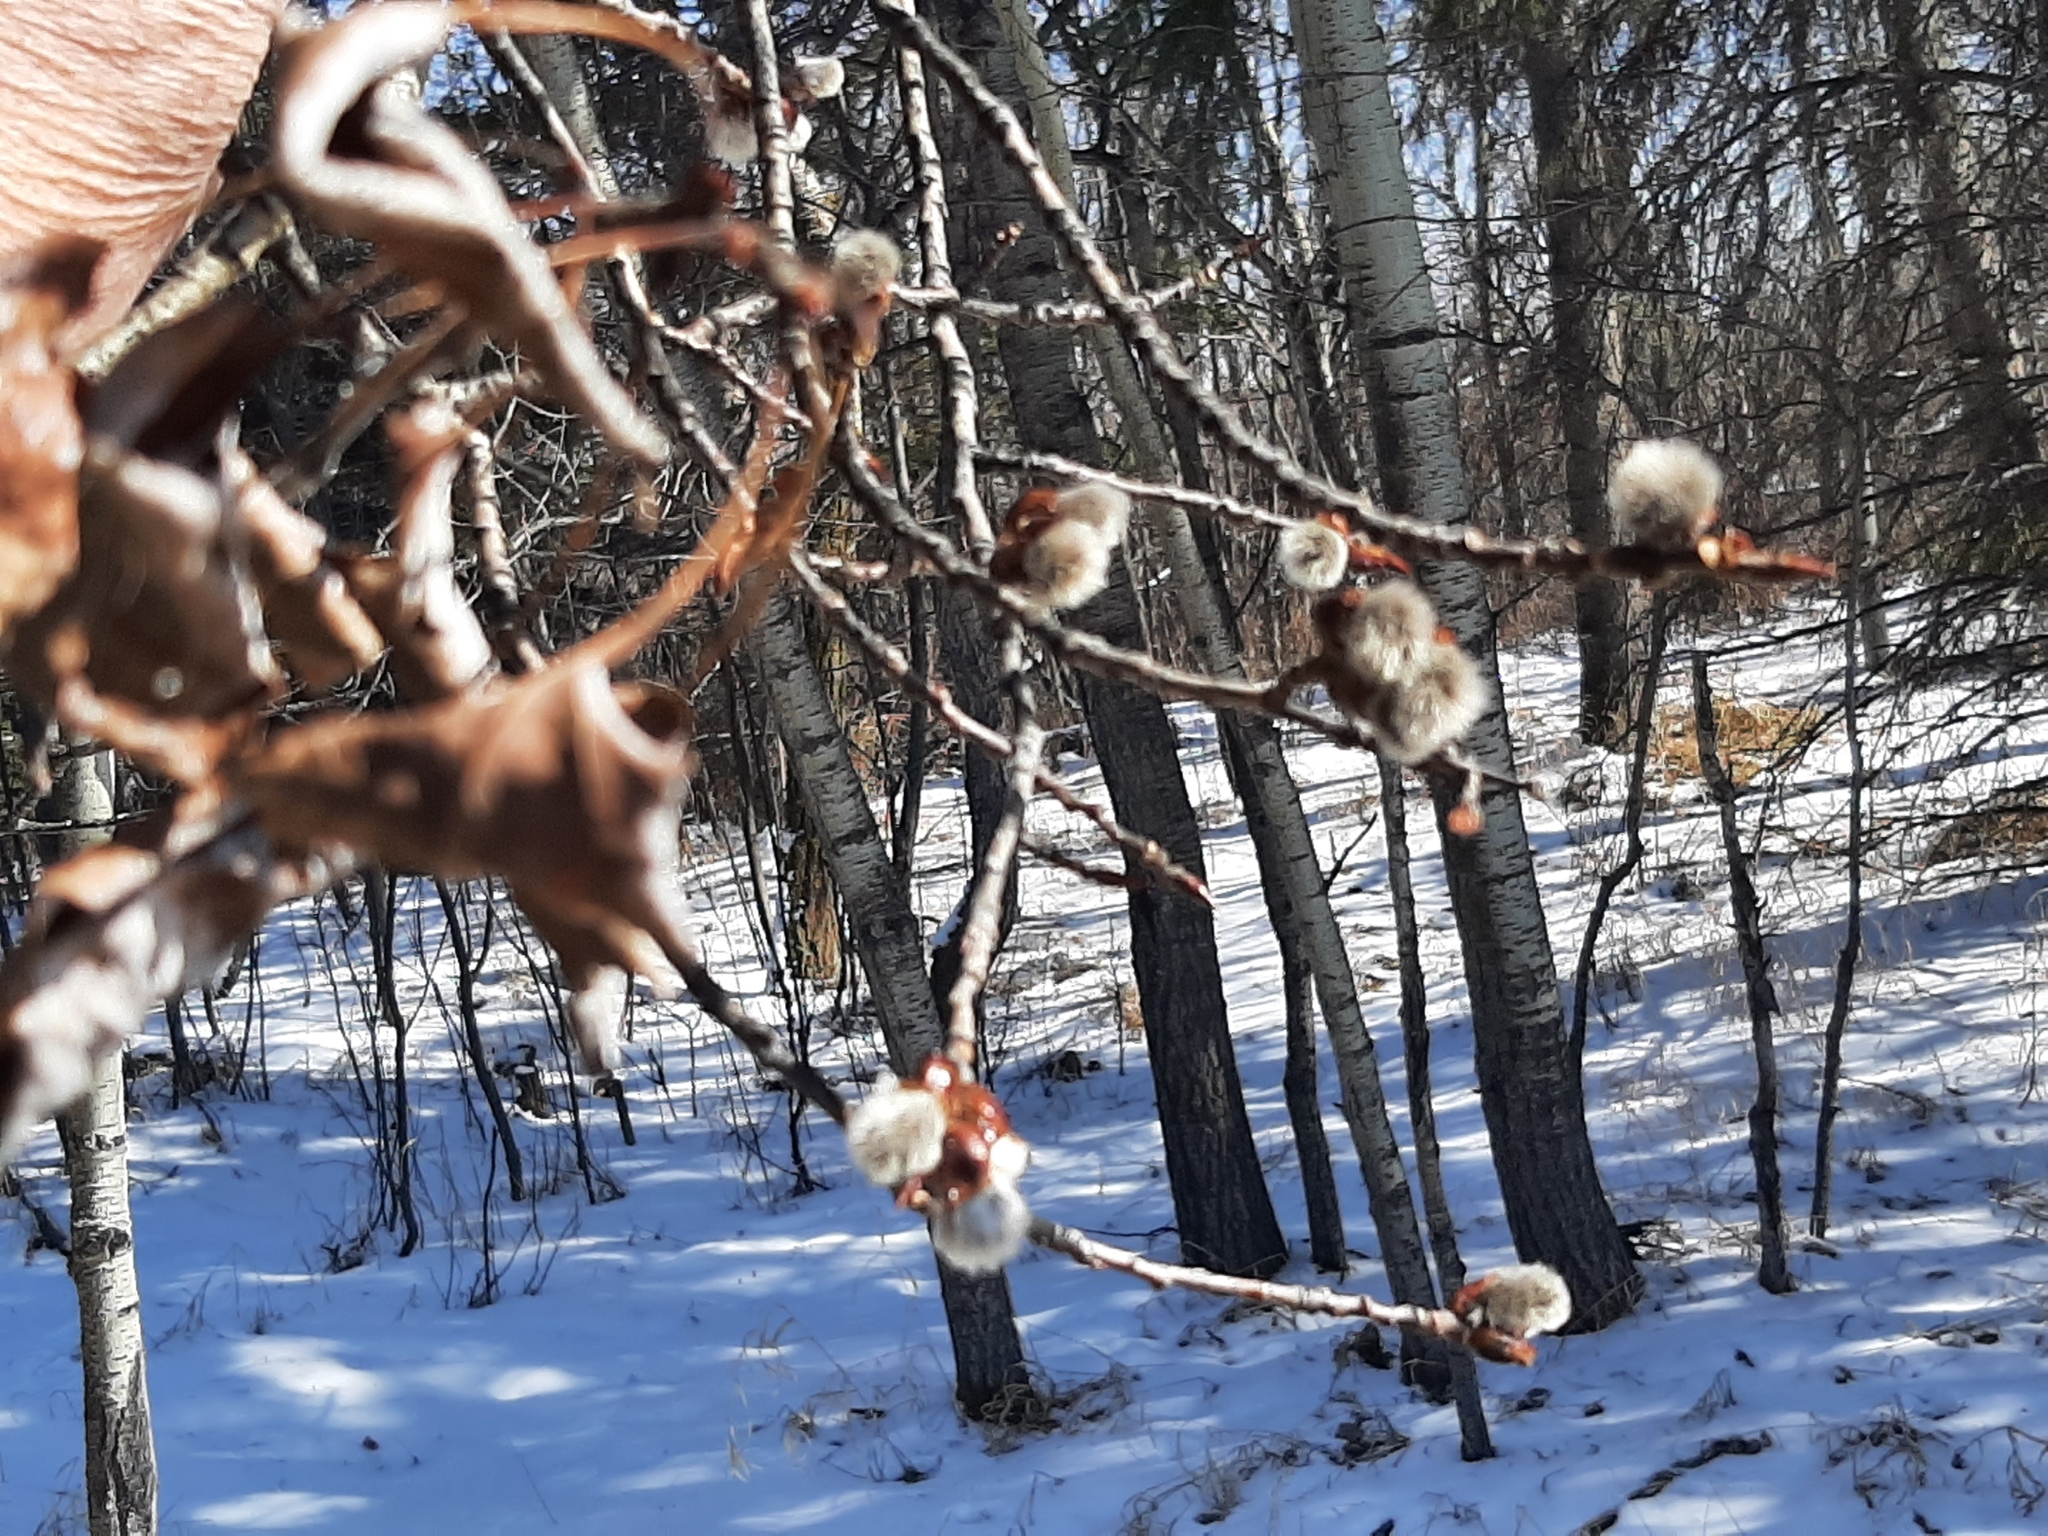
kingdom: Plantae
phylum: Tracheophyta
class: Magnoliopsida
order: Malpighiales
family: Salicaceae
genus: Populus
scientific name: Populus tremuloides
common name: Quaking aspen
